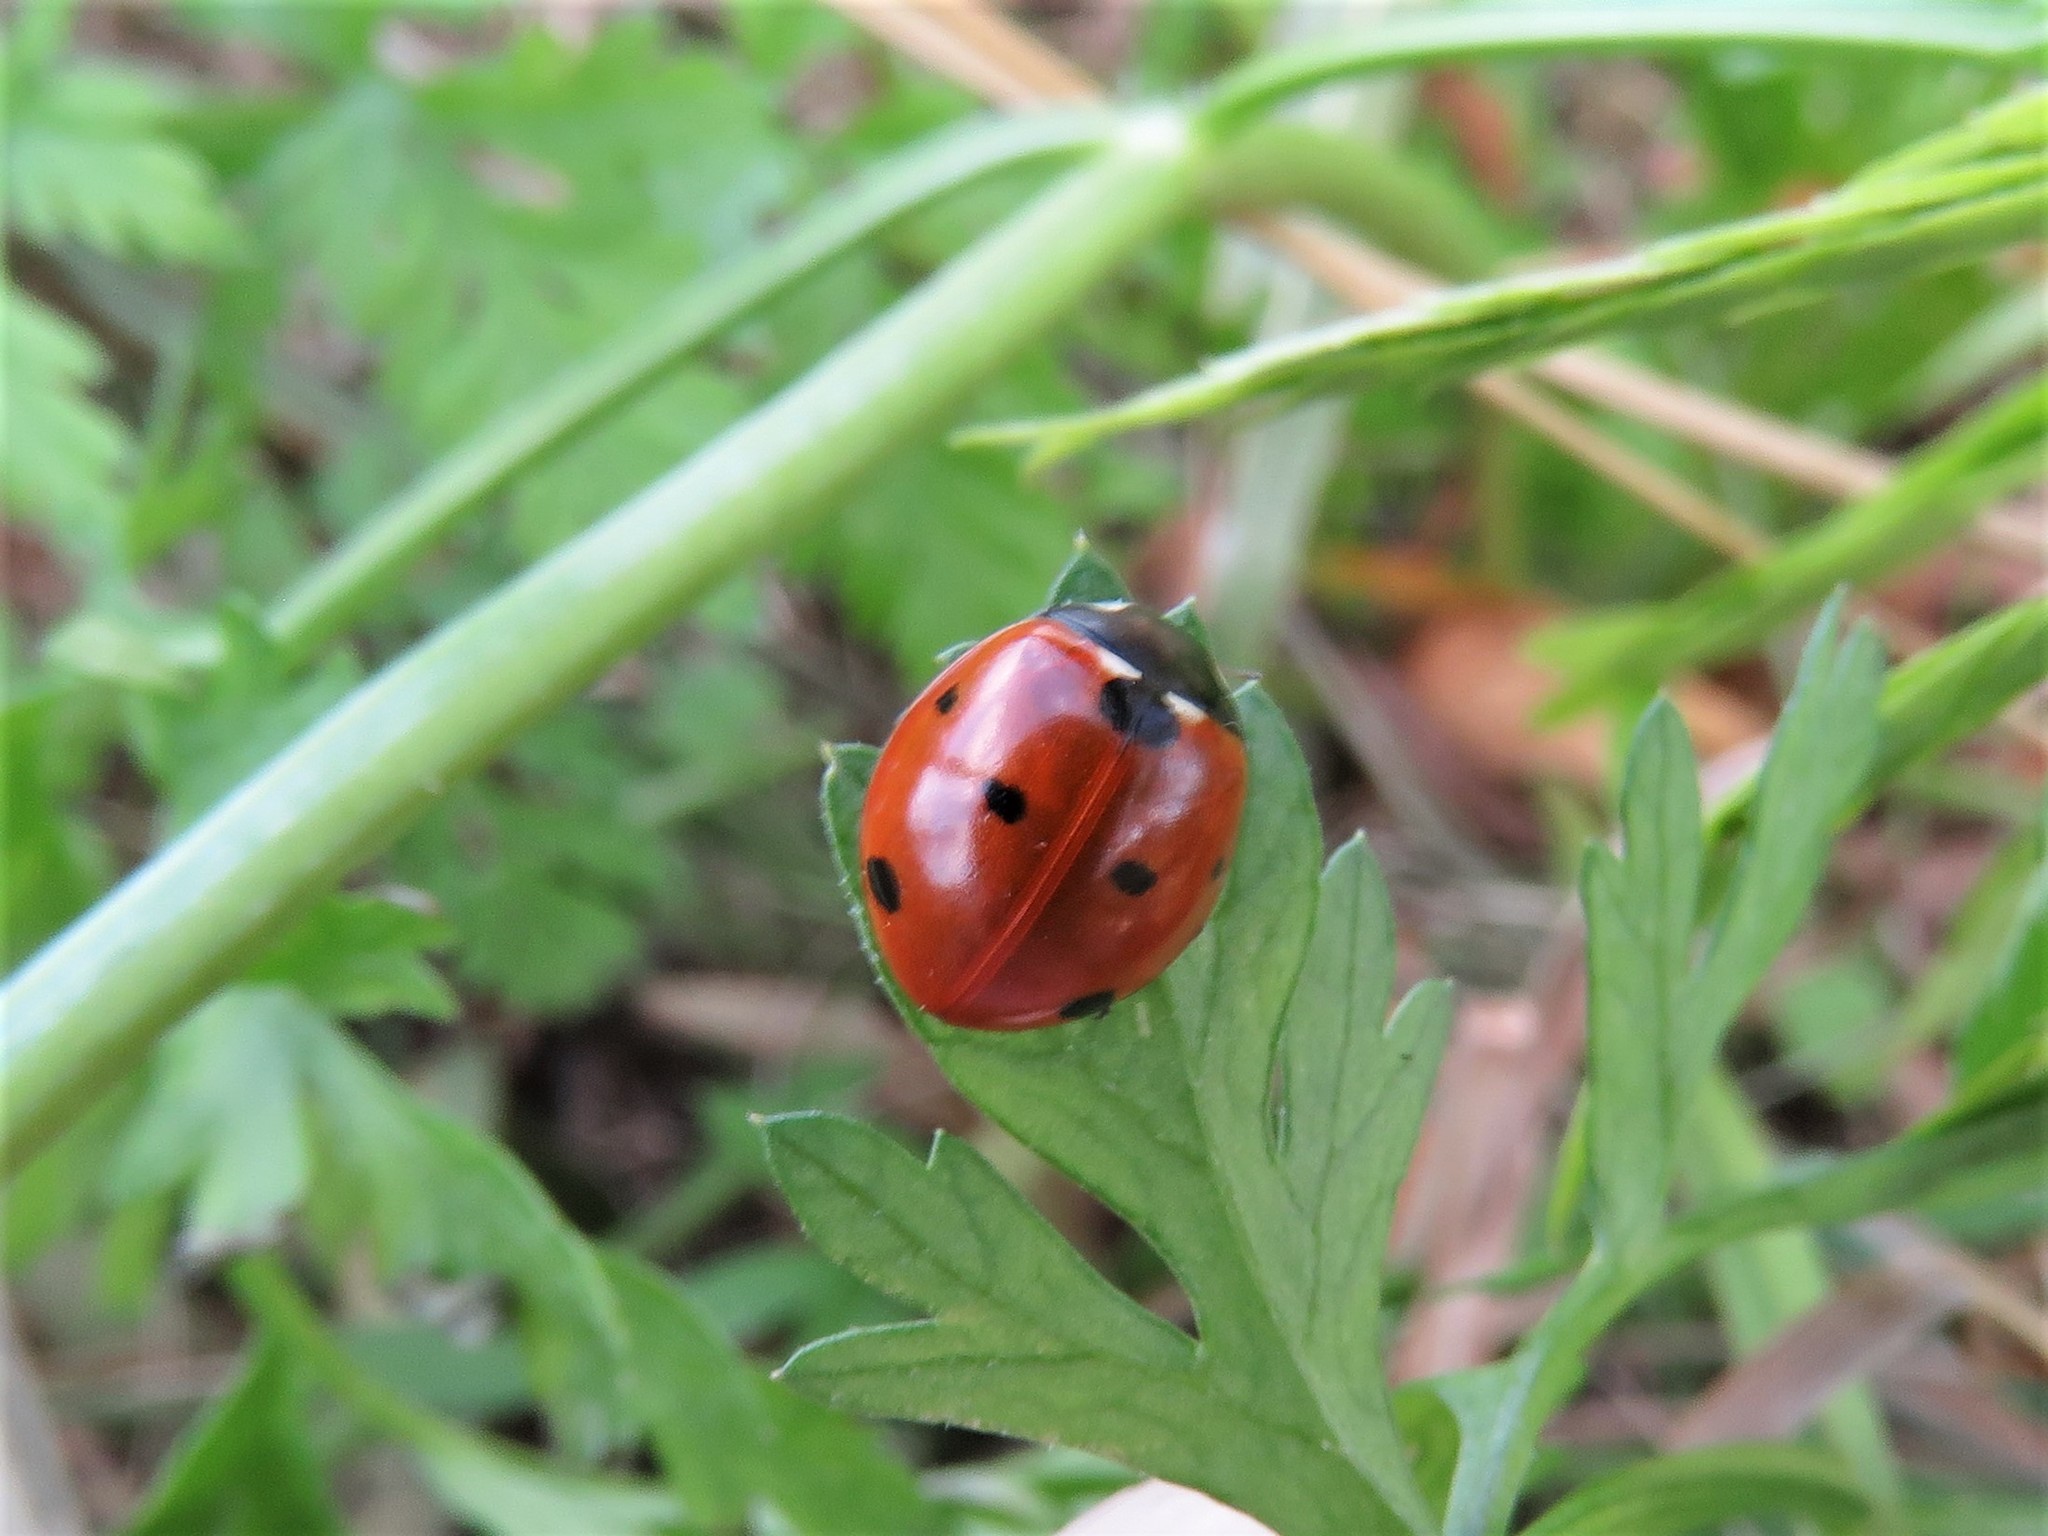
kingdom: Animalia
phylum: Arthropoda
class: Insecta
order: Coleoptera
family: Coccinellidae
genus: Coccinella
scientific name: Coccinella septempunctata
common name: Sevenspotted lady beetle
